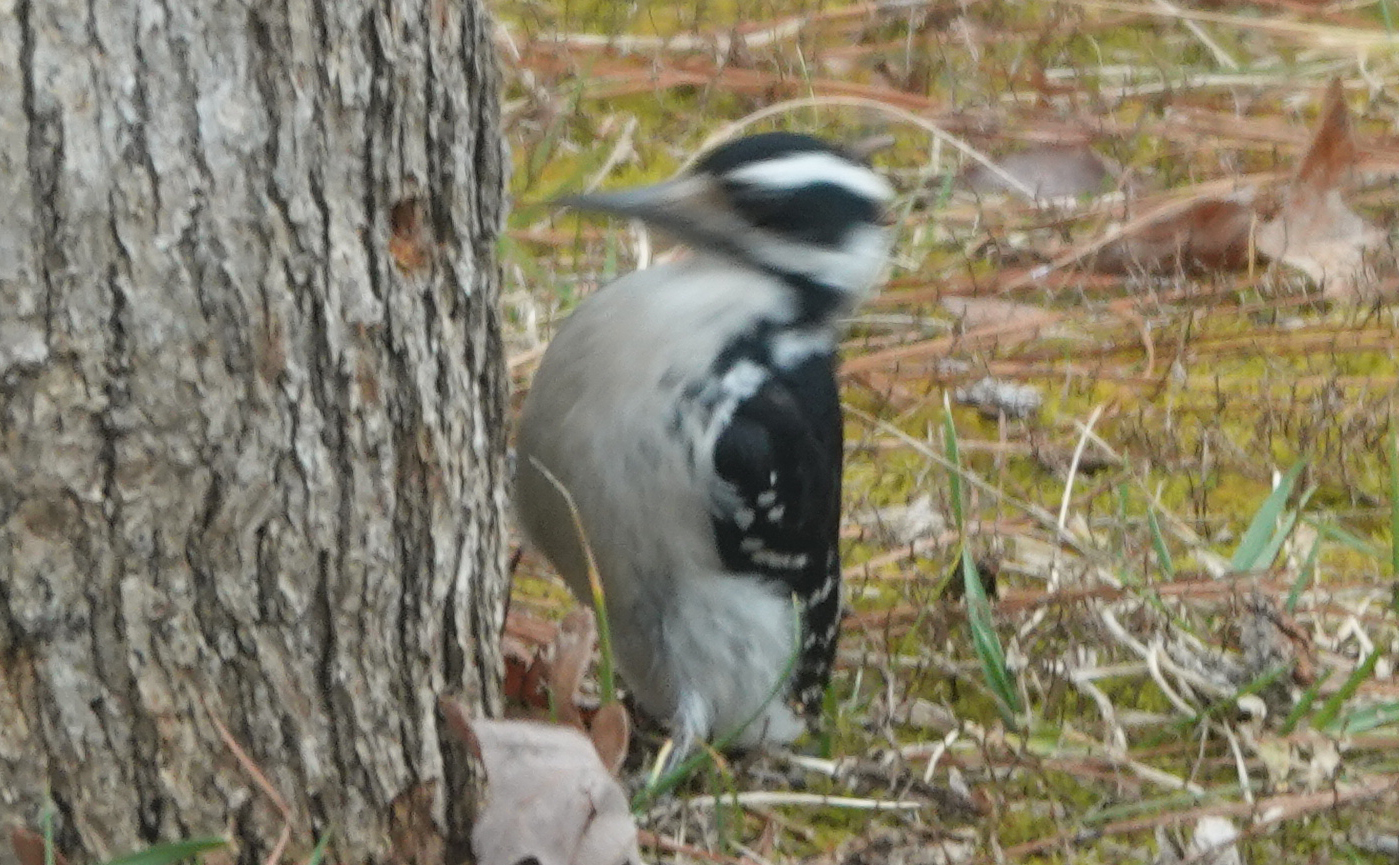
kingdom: Animalia
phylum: Chordata
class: Aves
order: Piciformes
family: Picidae
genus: Leuconotopicus
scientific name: Leuconotopicus villosus
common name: Hairy woodpecker
